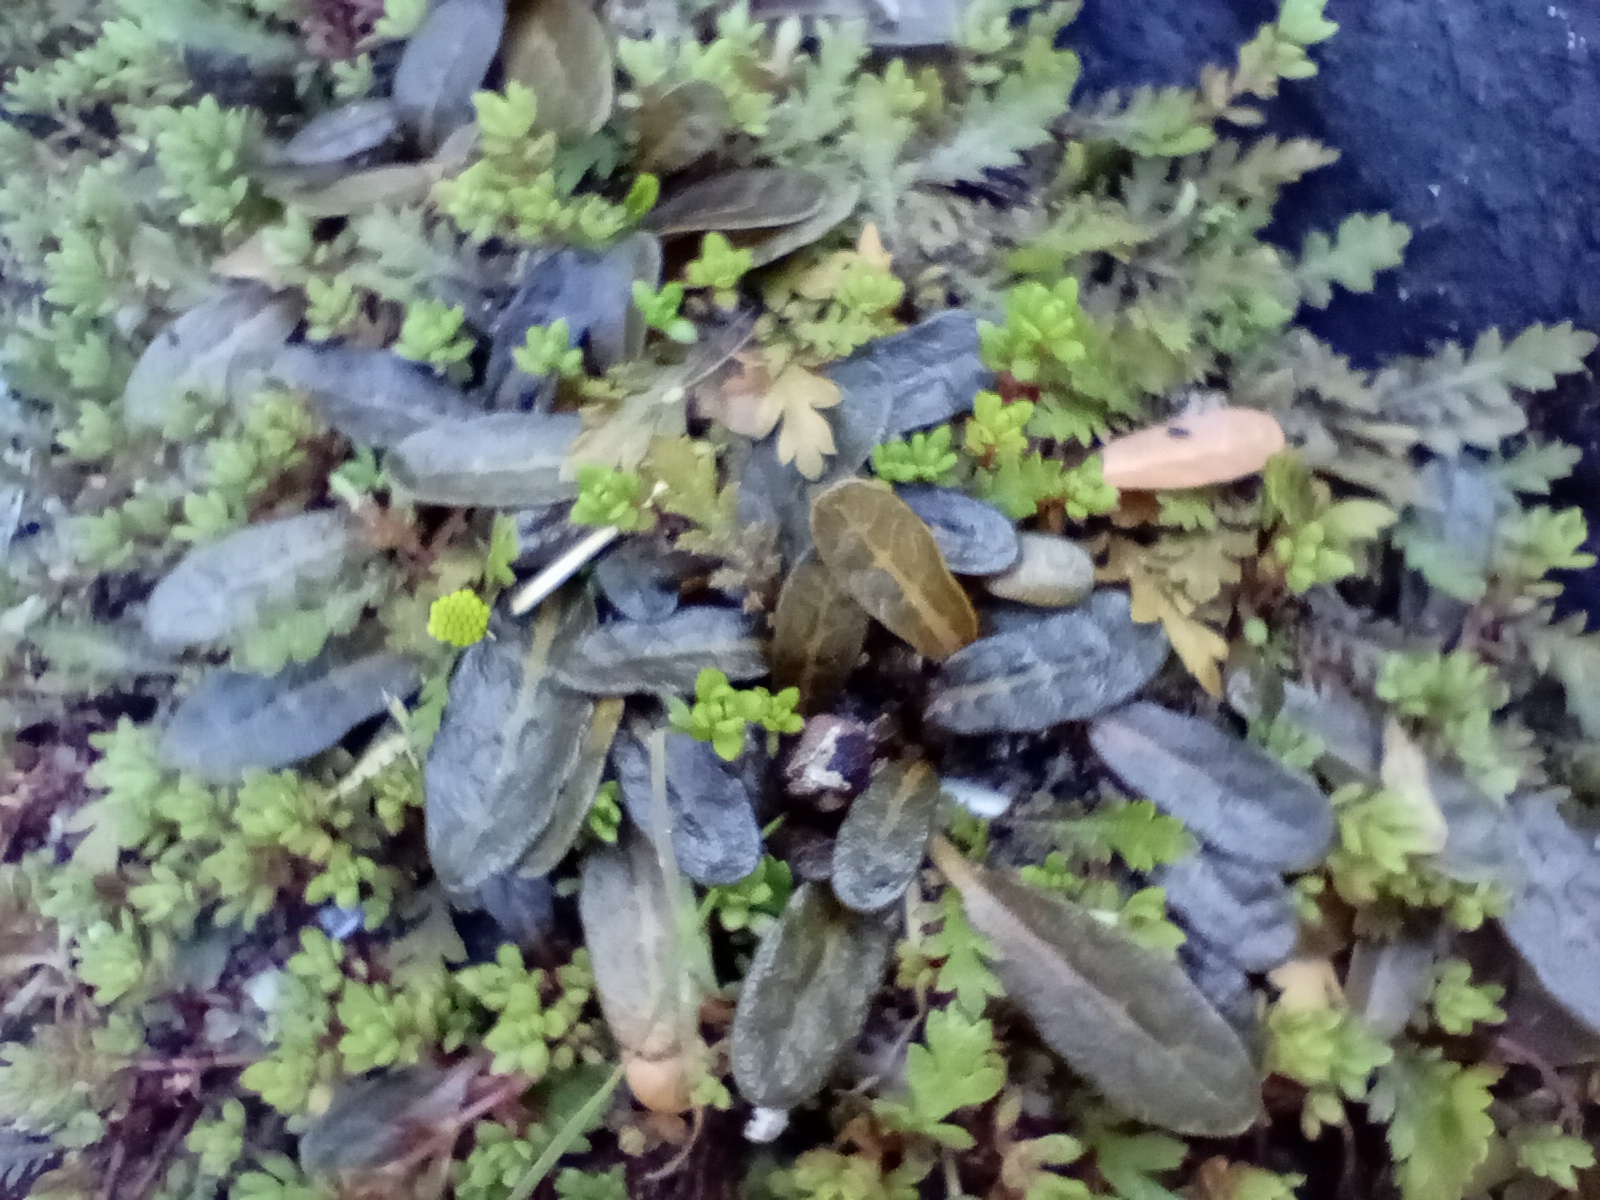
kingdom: Plantae
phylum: Tracheophyta
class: Magnoliopsida
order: Caryophyllales
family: Polygonaceae
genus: Rumex
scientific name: Rumex neglectus
